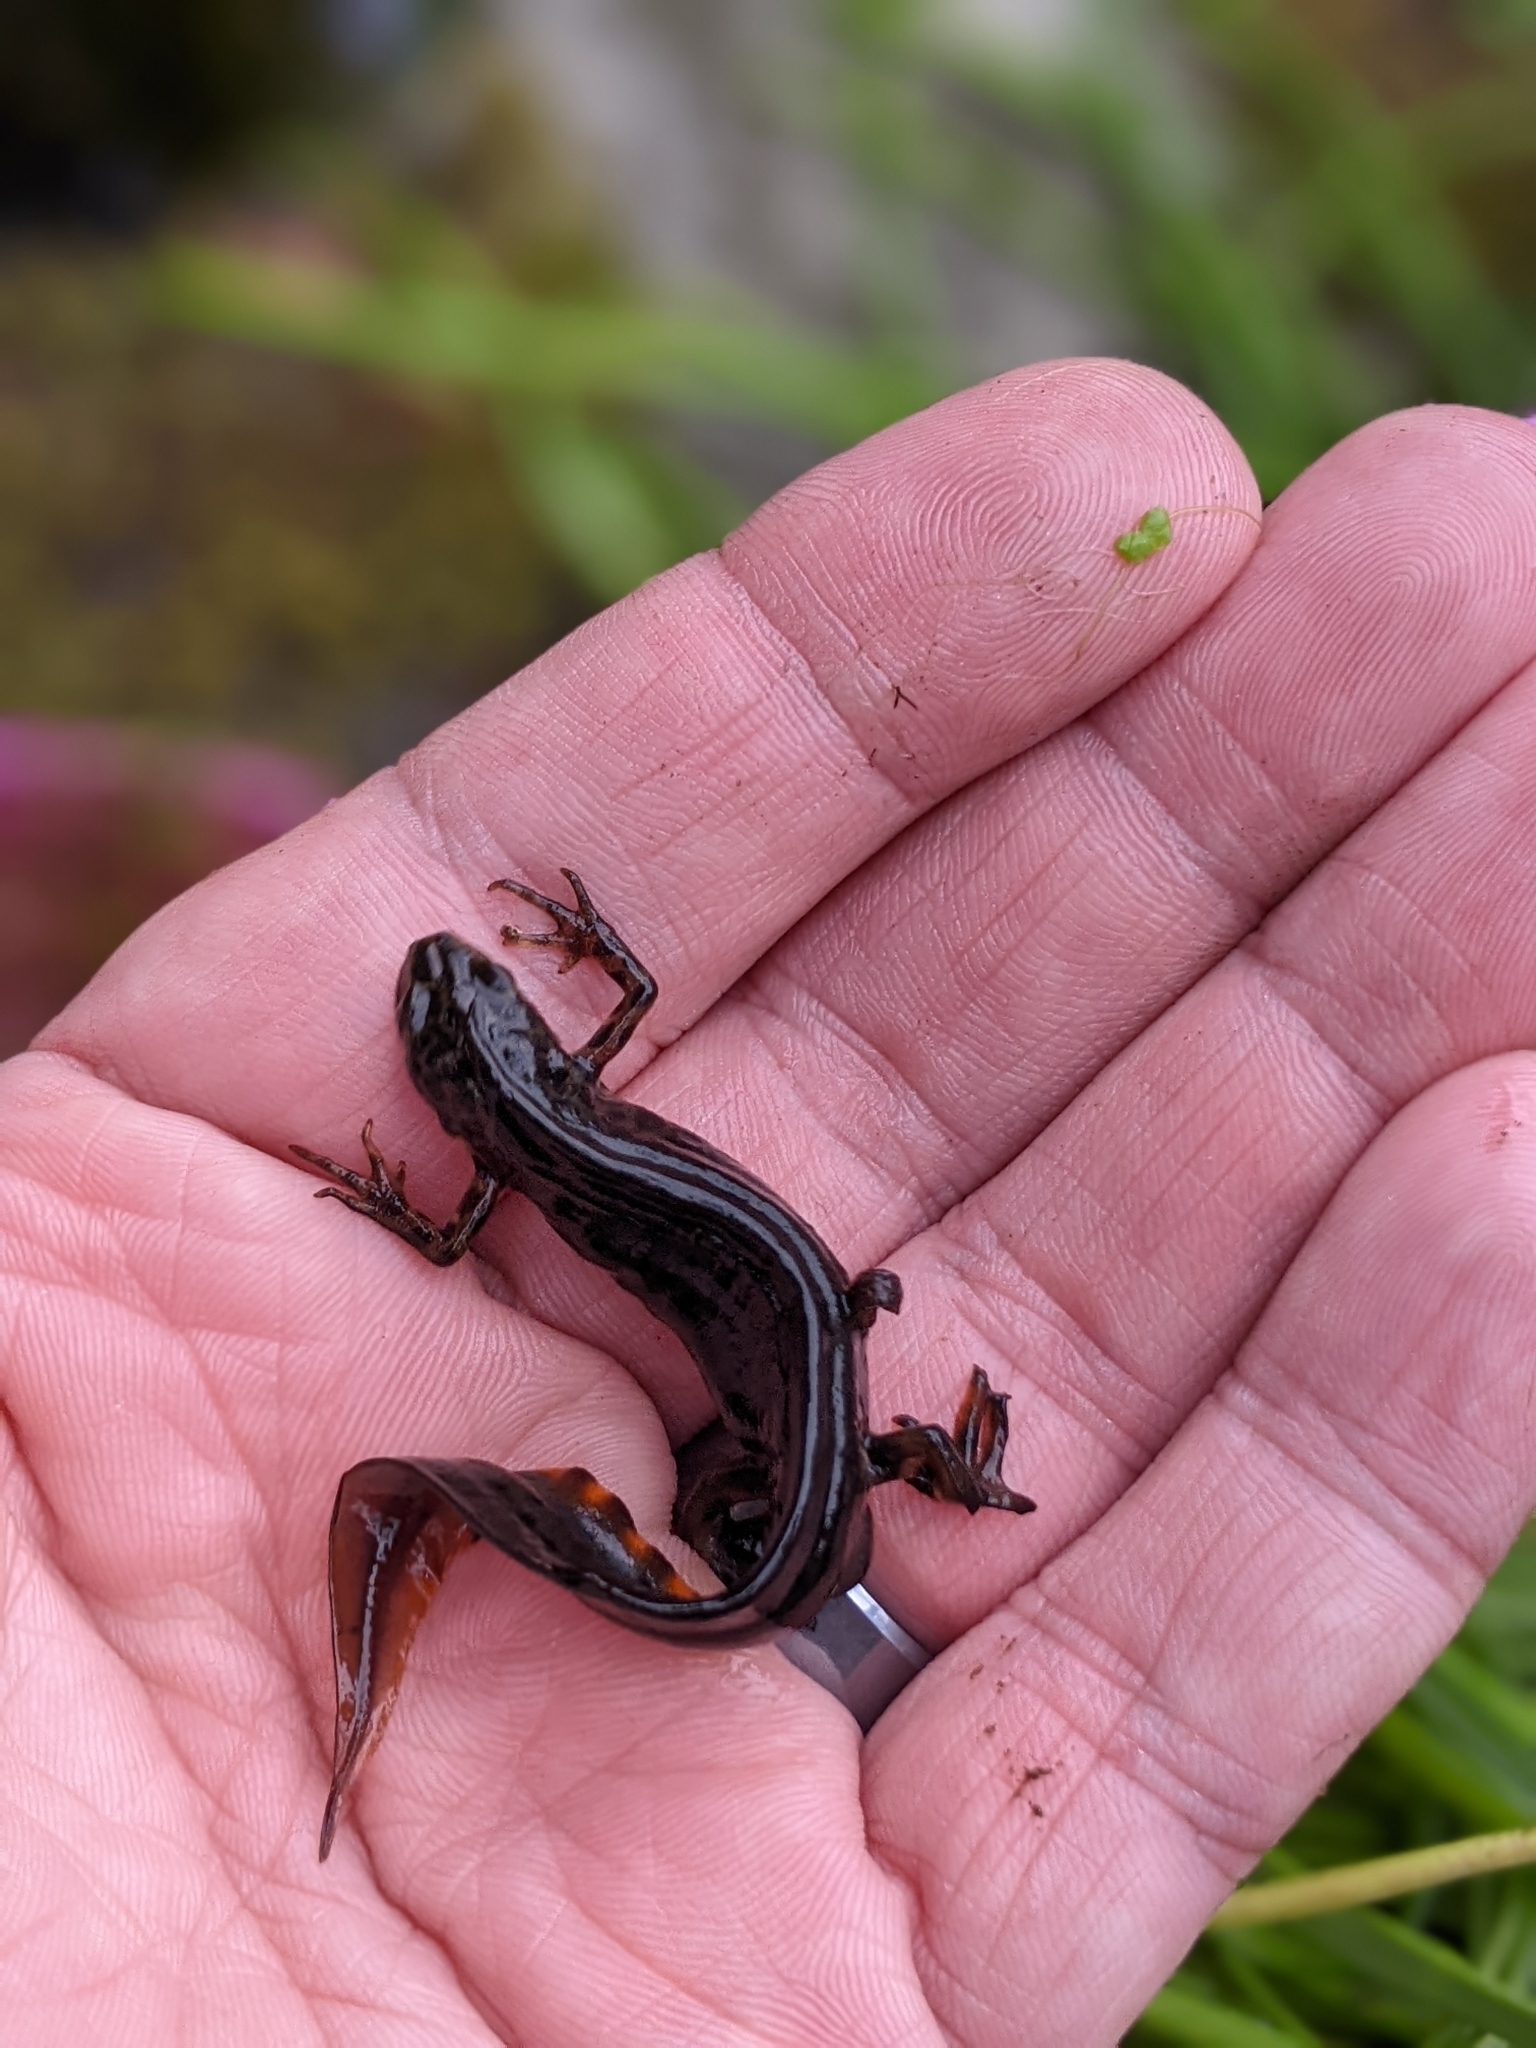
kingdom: Animalia
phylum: Chordata
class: Amphibia
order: Caudata
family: Salamandridae
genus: Lissotriton
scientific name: Lissotriton vulgaris
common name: Smooth newt
